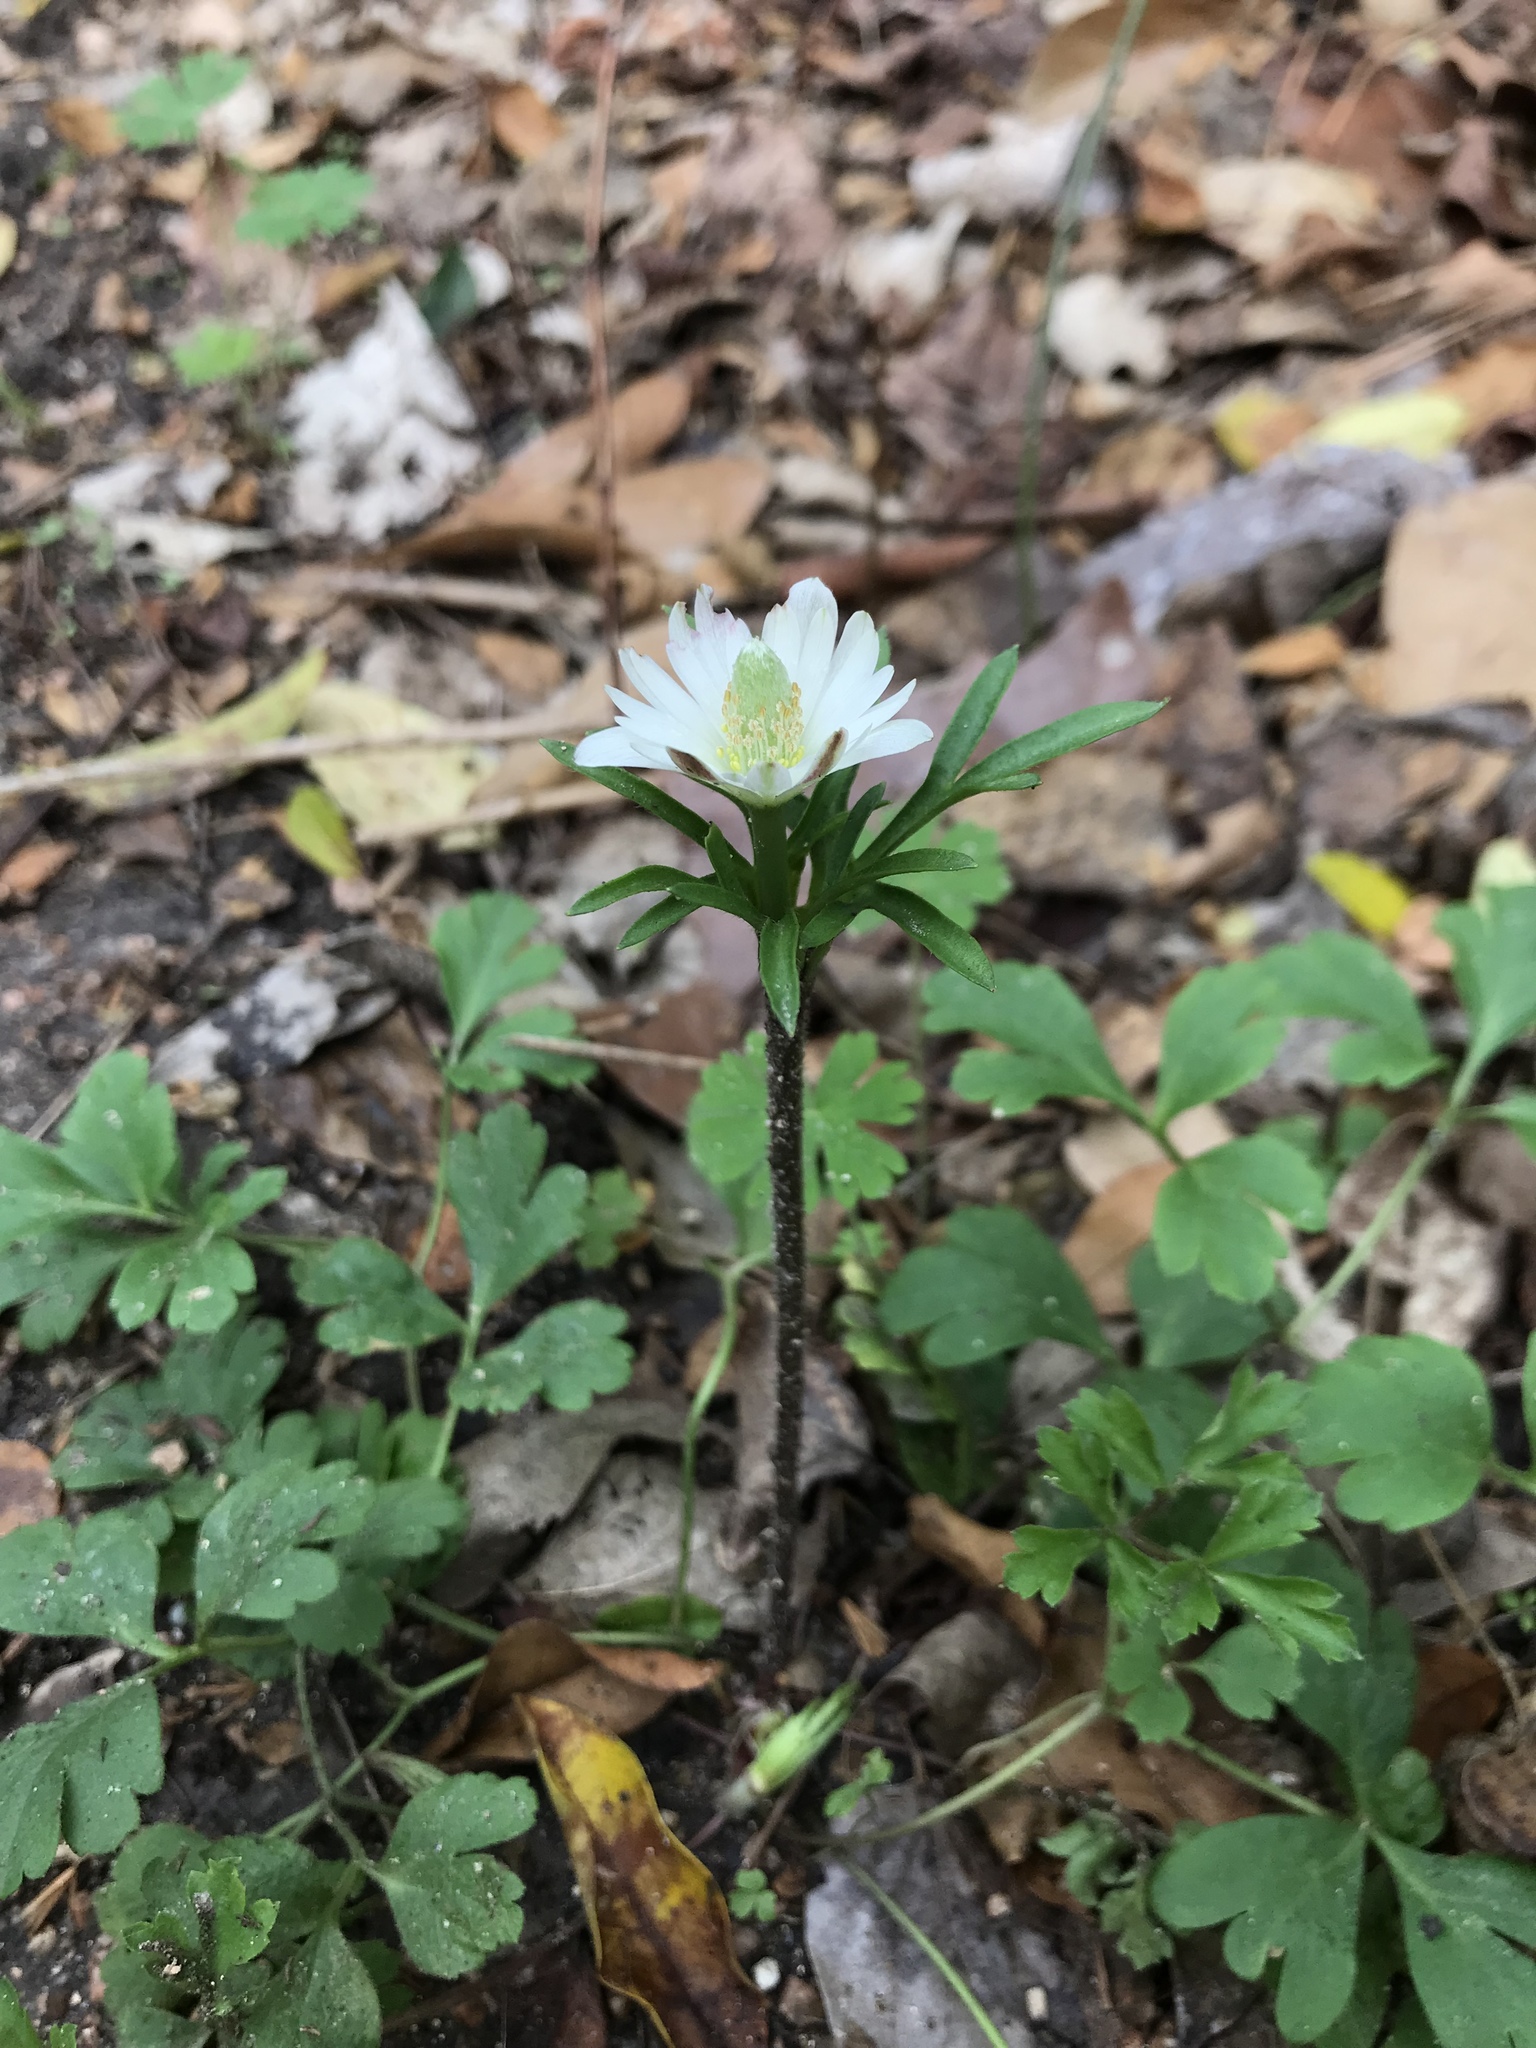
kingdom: Plantae
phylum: Tracheophyta
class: Magnoliopsida
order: Ranunculales
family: Ranunculaceae
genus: Anemone
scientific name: Anemone berlandieri
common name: Ten-petal anemone
